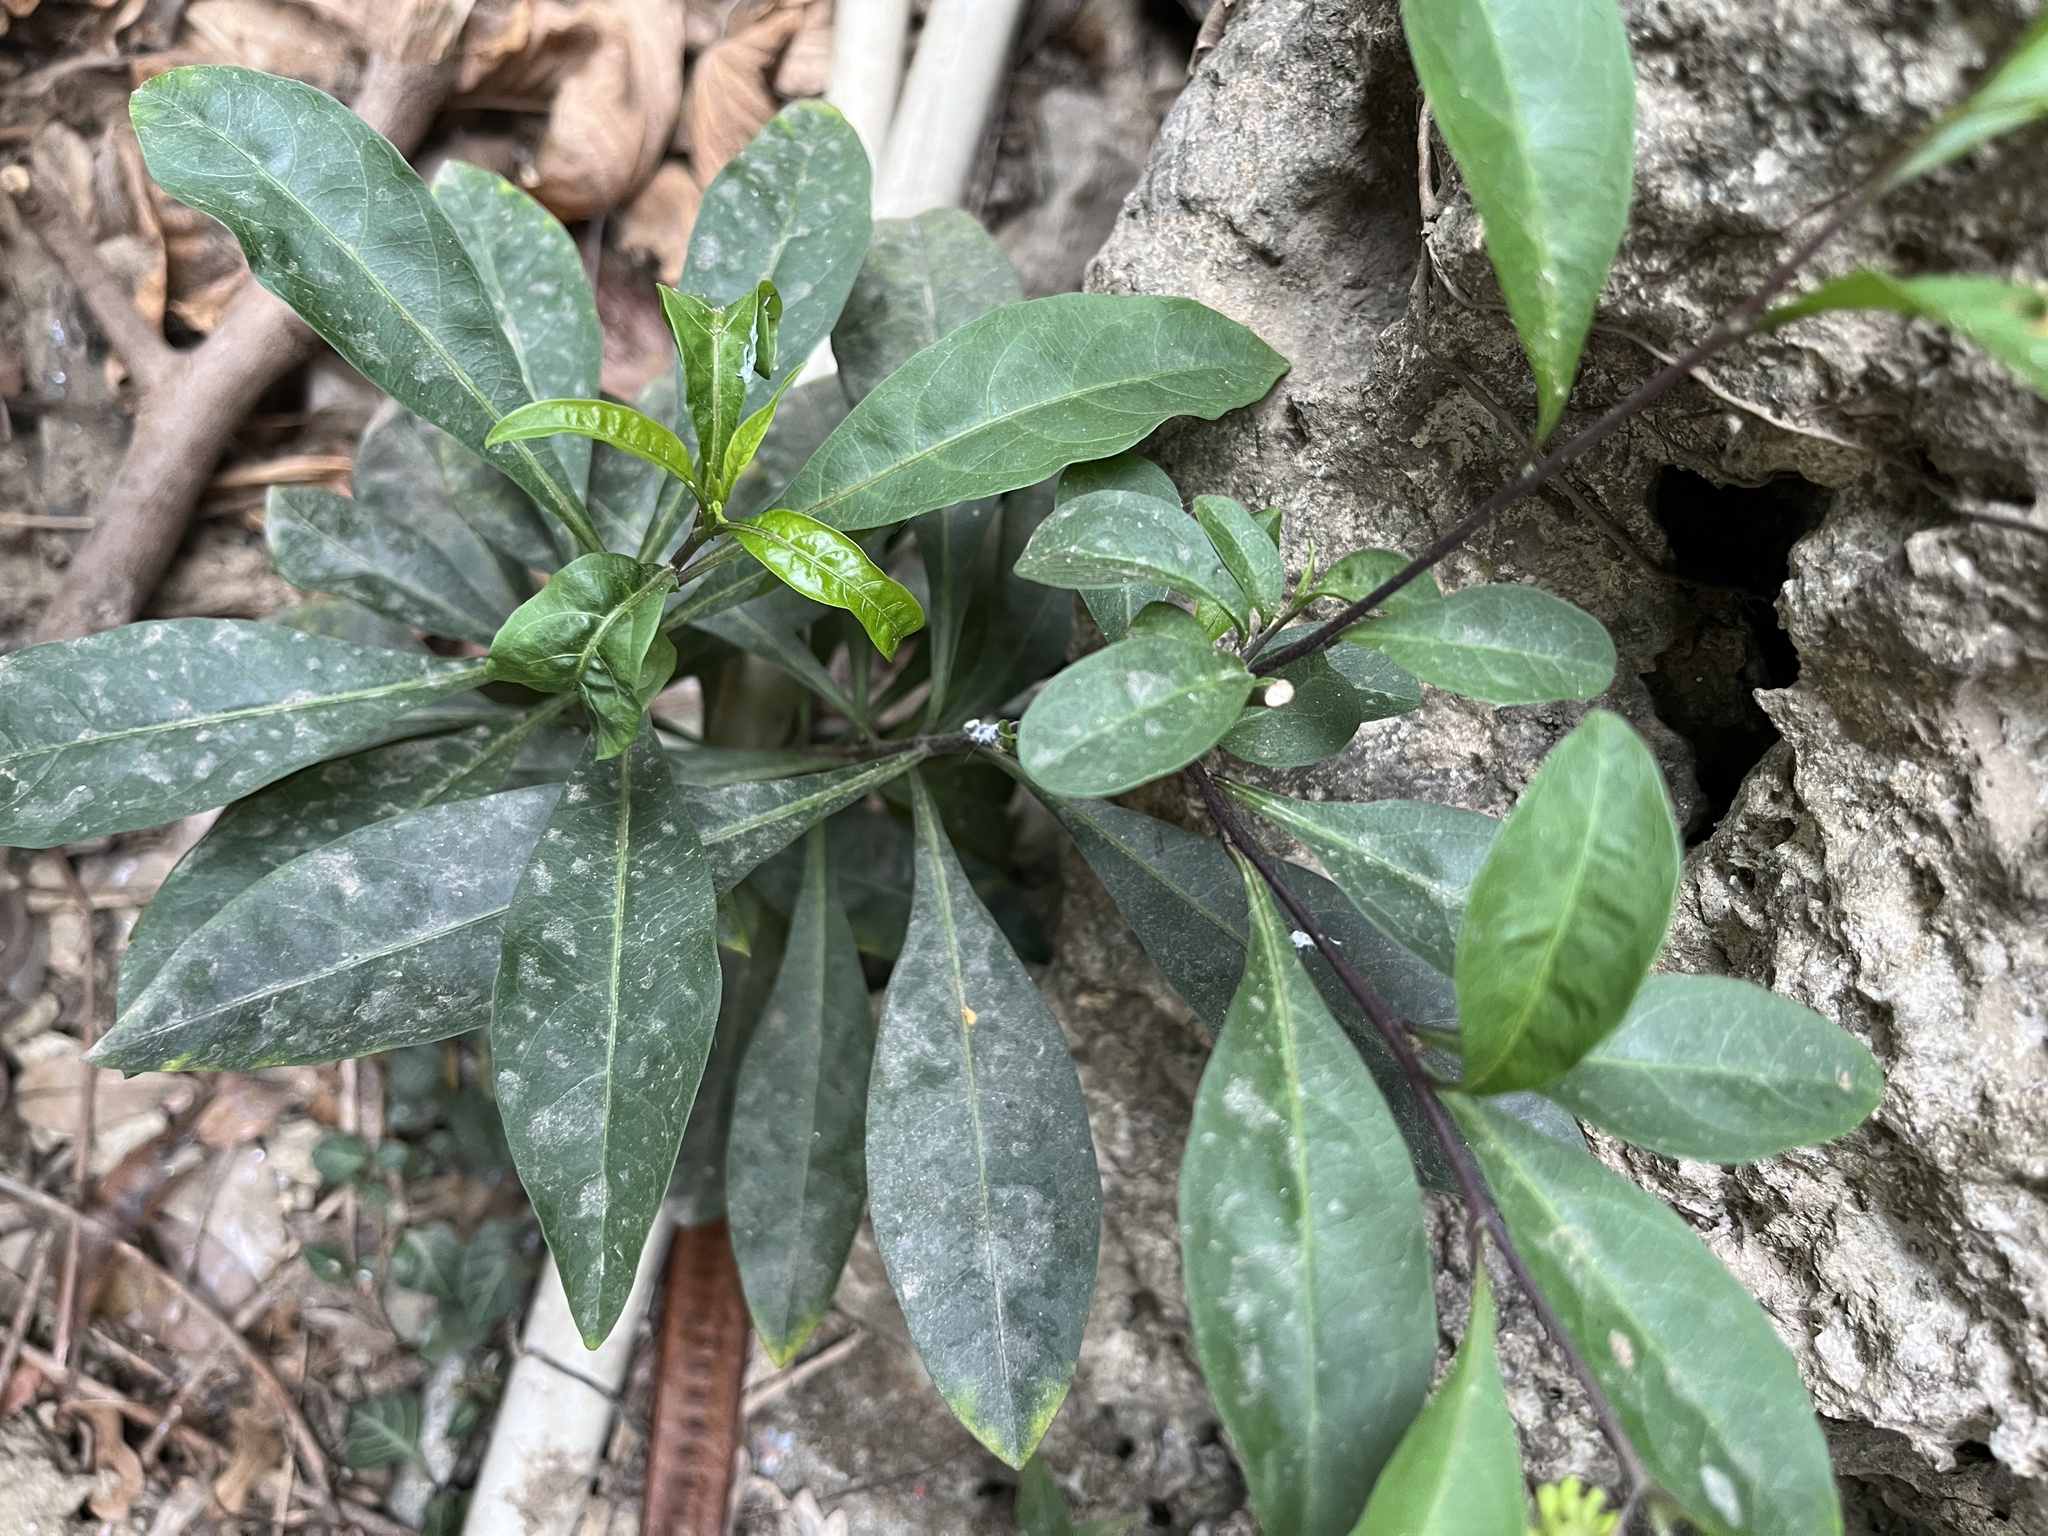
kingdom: Plantae
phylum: Tracheophyta
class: Magnoliopsida
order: Solanales
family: Solanaceae
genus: Solanum
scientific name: Solanum diphyllum
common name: Twoleaf nightshade
